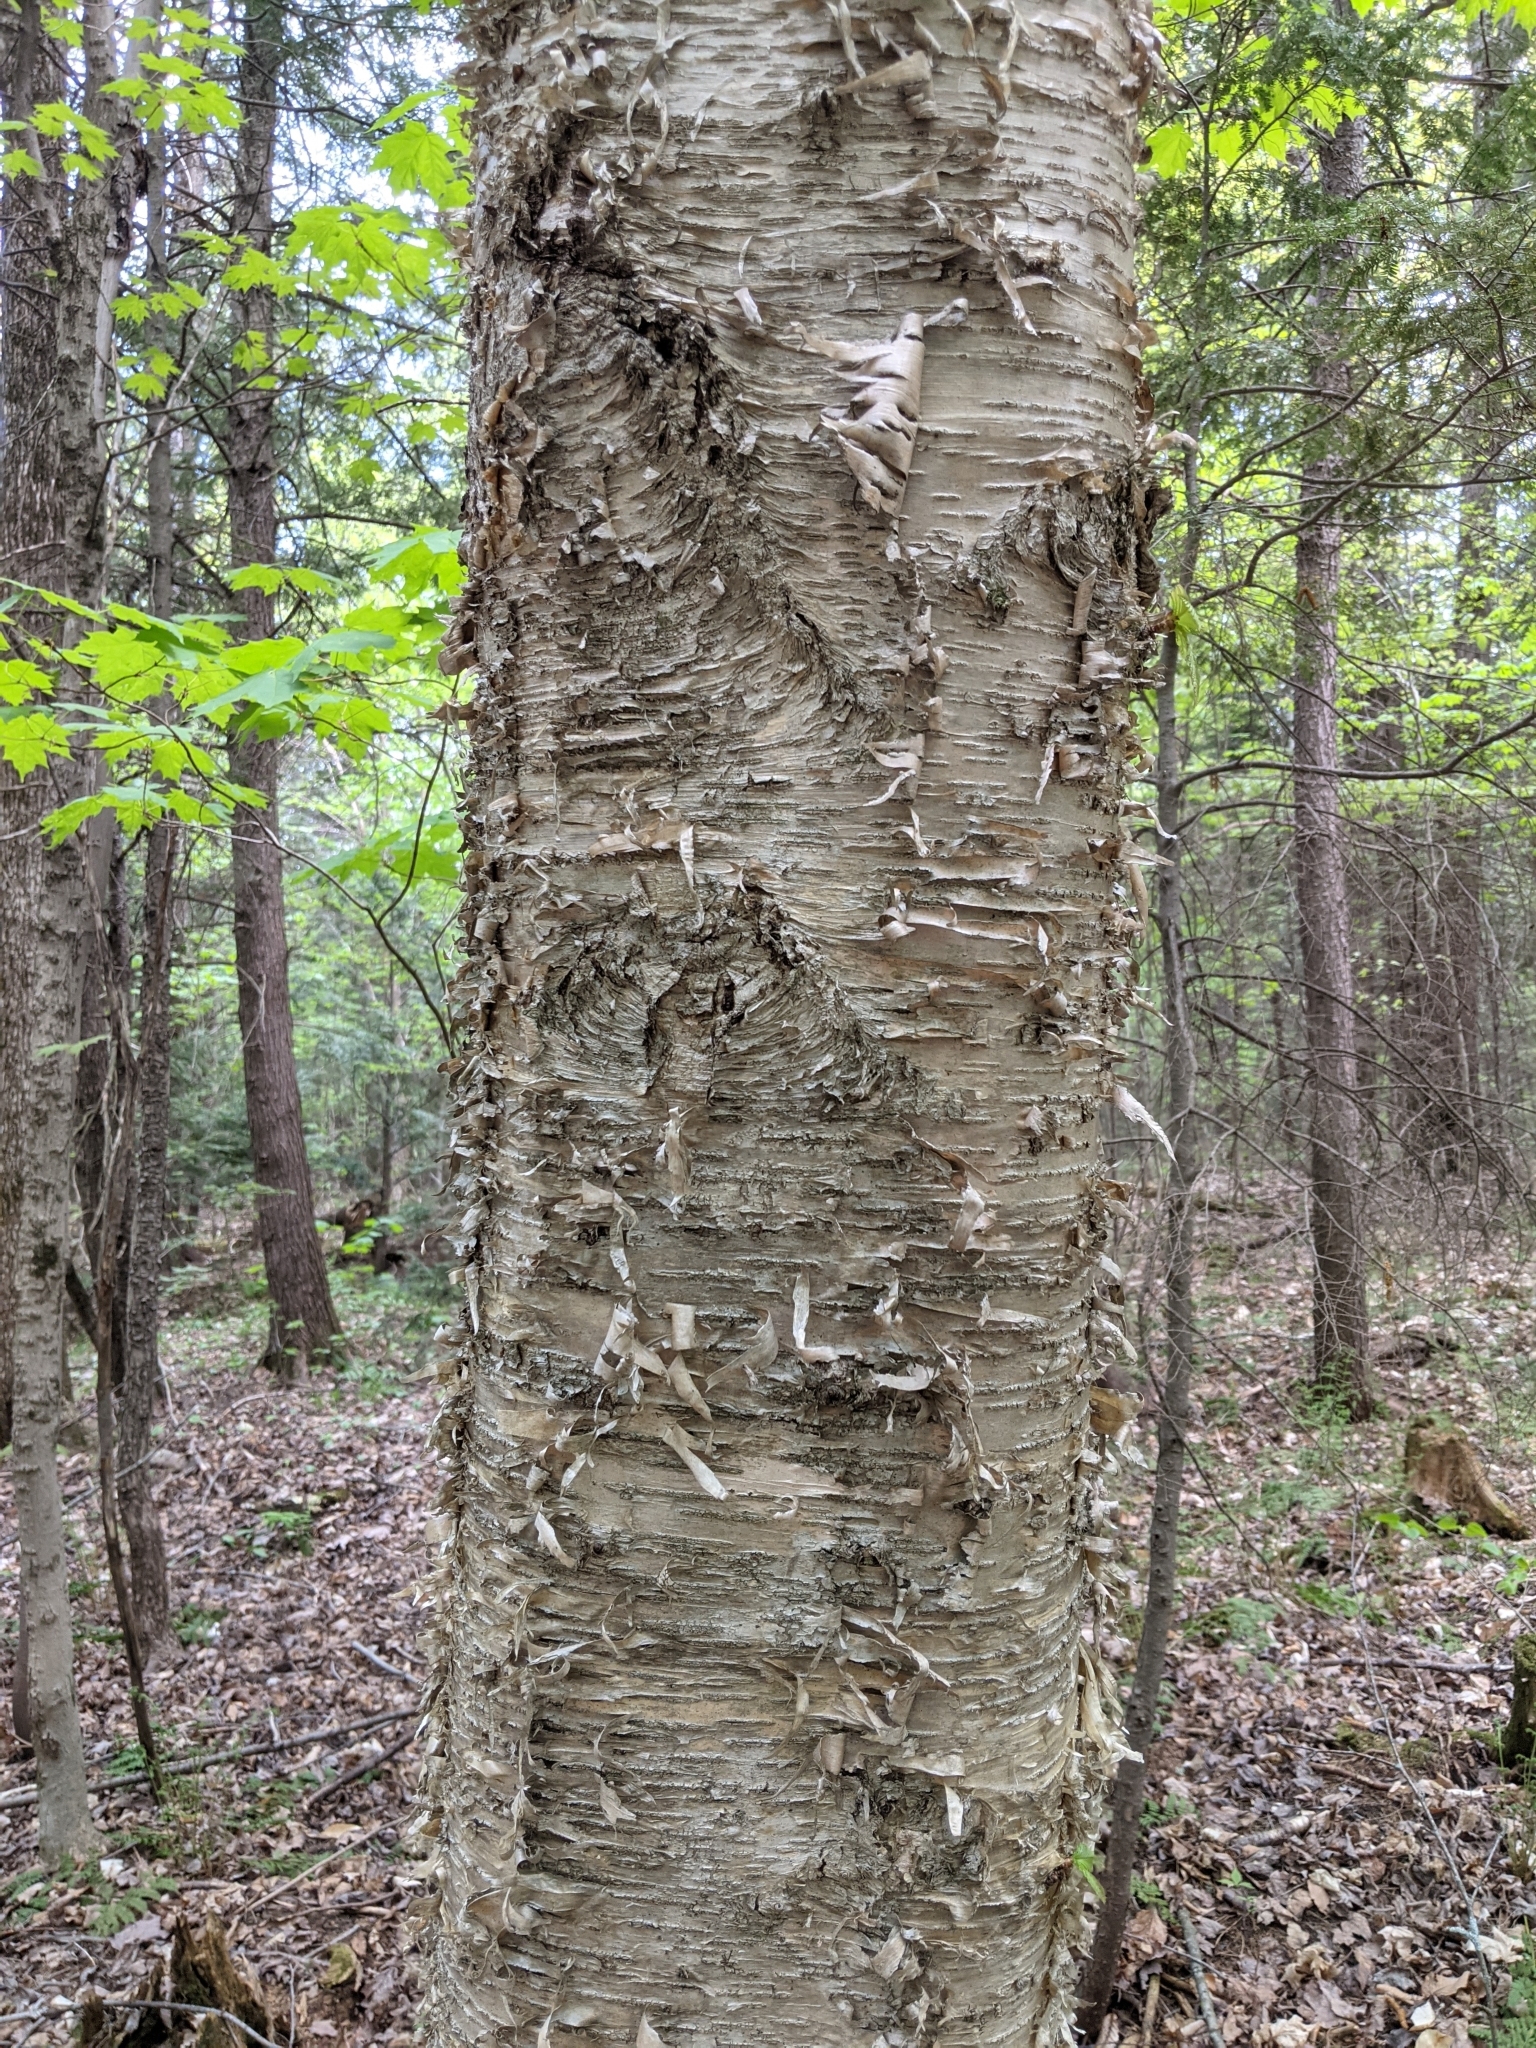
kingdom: Plantae
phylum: Tracheophyta
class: Magnoliopsida
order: Fagales
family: Betulaceae
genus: Betula
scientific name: Betula alleghaniensis
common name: Yellow birch
